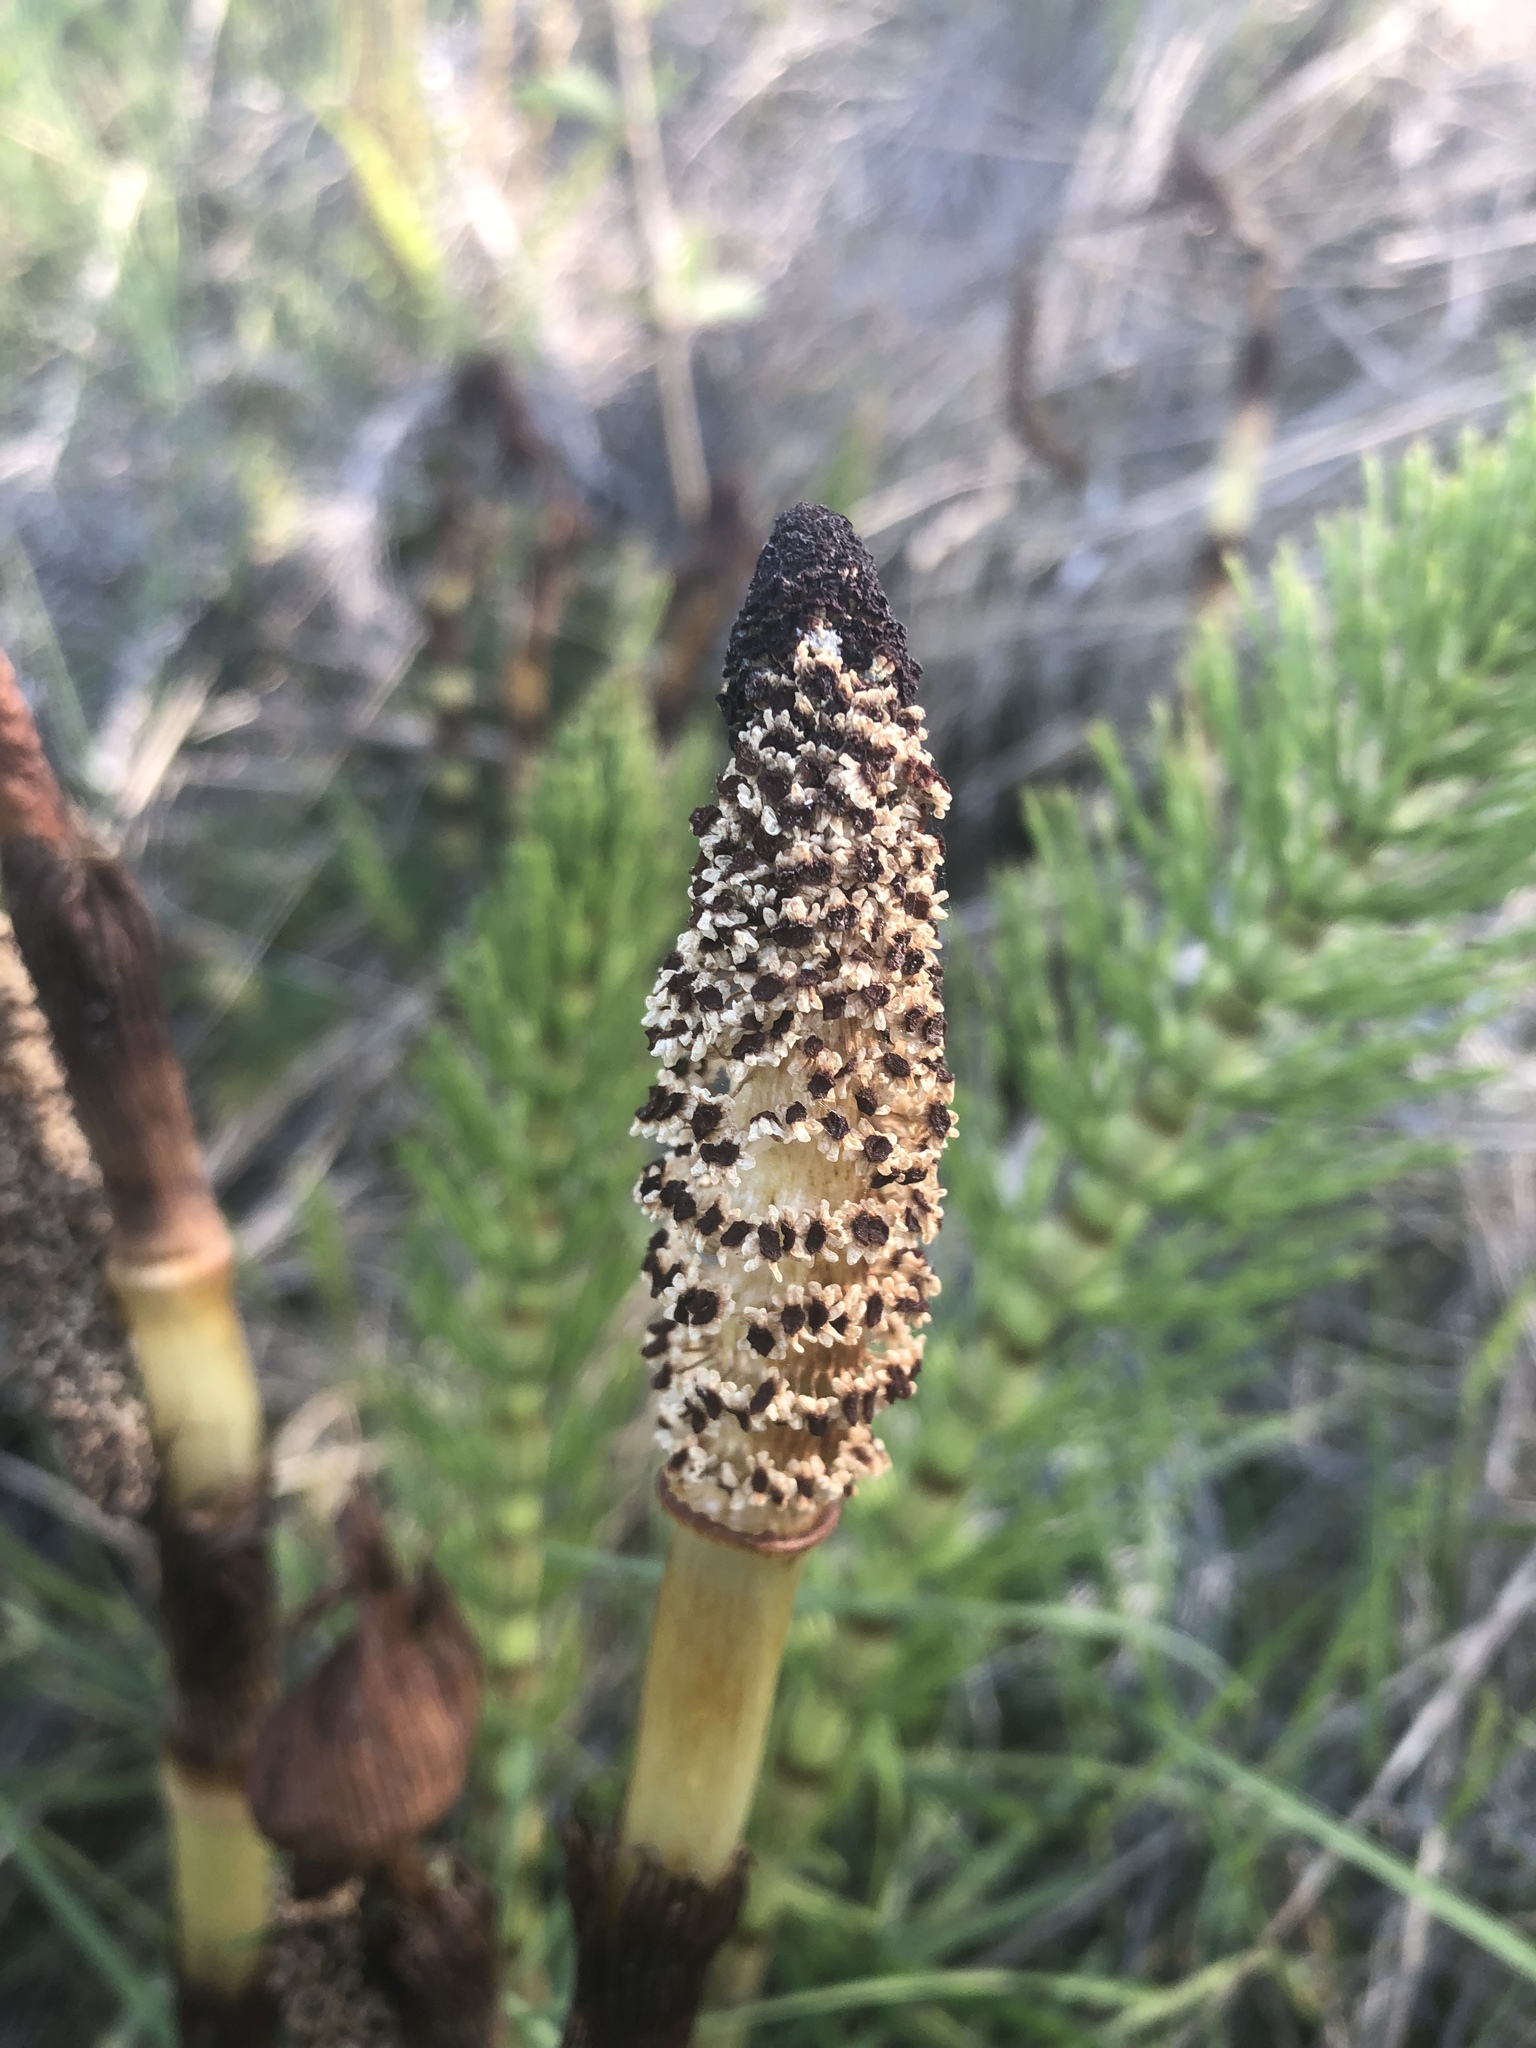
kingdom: Plantae
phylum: Tracheophyta
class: Polypodiopsida
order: Equisetales
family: Equisetaceae
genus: Equisetum
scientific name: Equisetum telmateia
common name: Great horsetail
